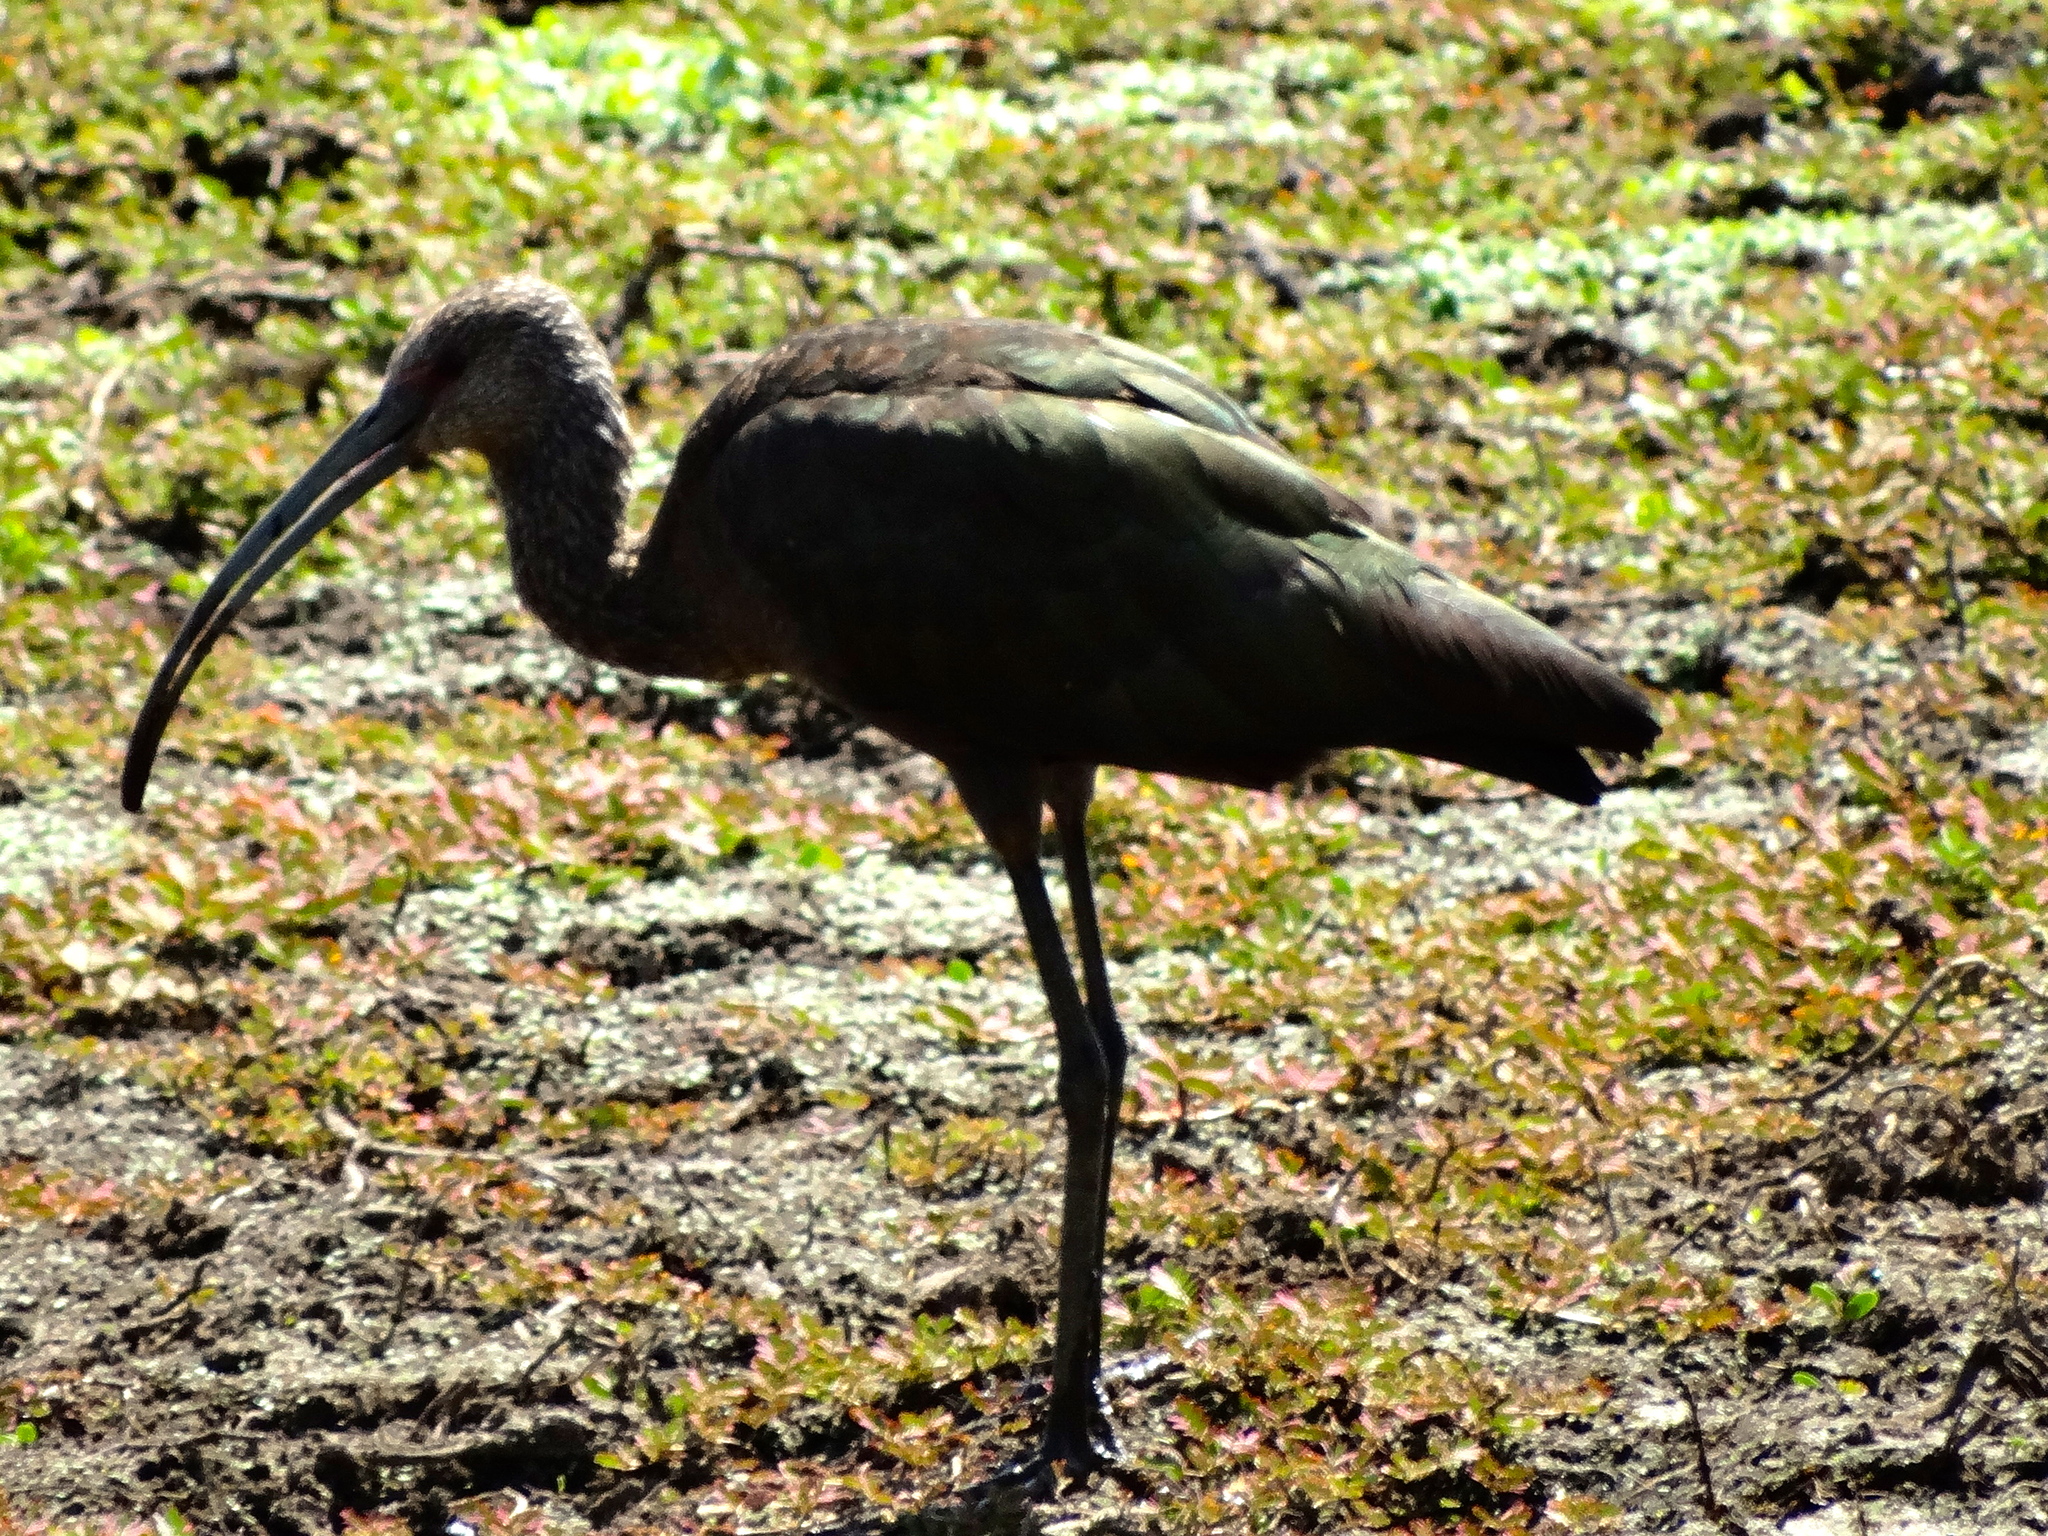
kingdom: Animalia
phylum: Chordata
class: Aves
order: Pelecaniformes
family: Threskiornithidae
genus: Plegadis
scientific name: Plegadis chihi
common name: White-faced ibis
